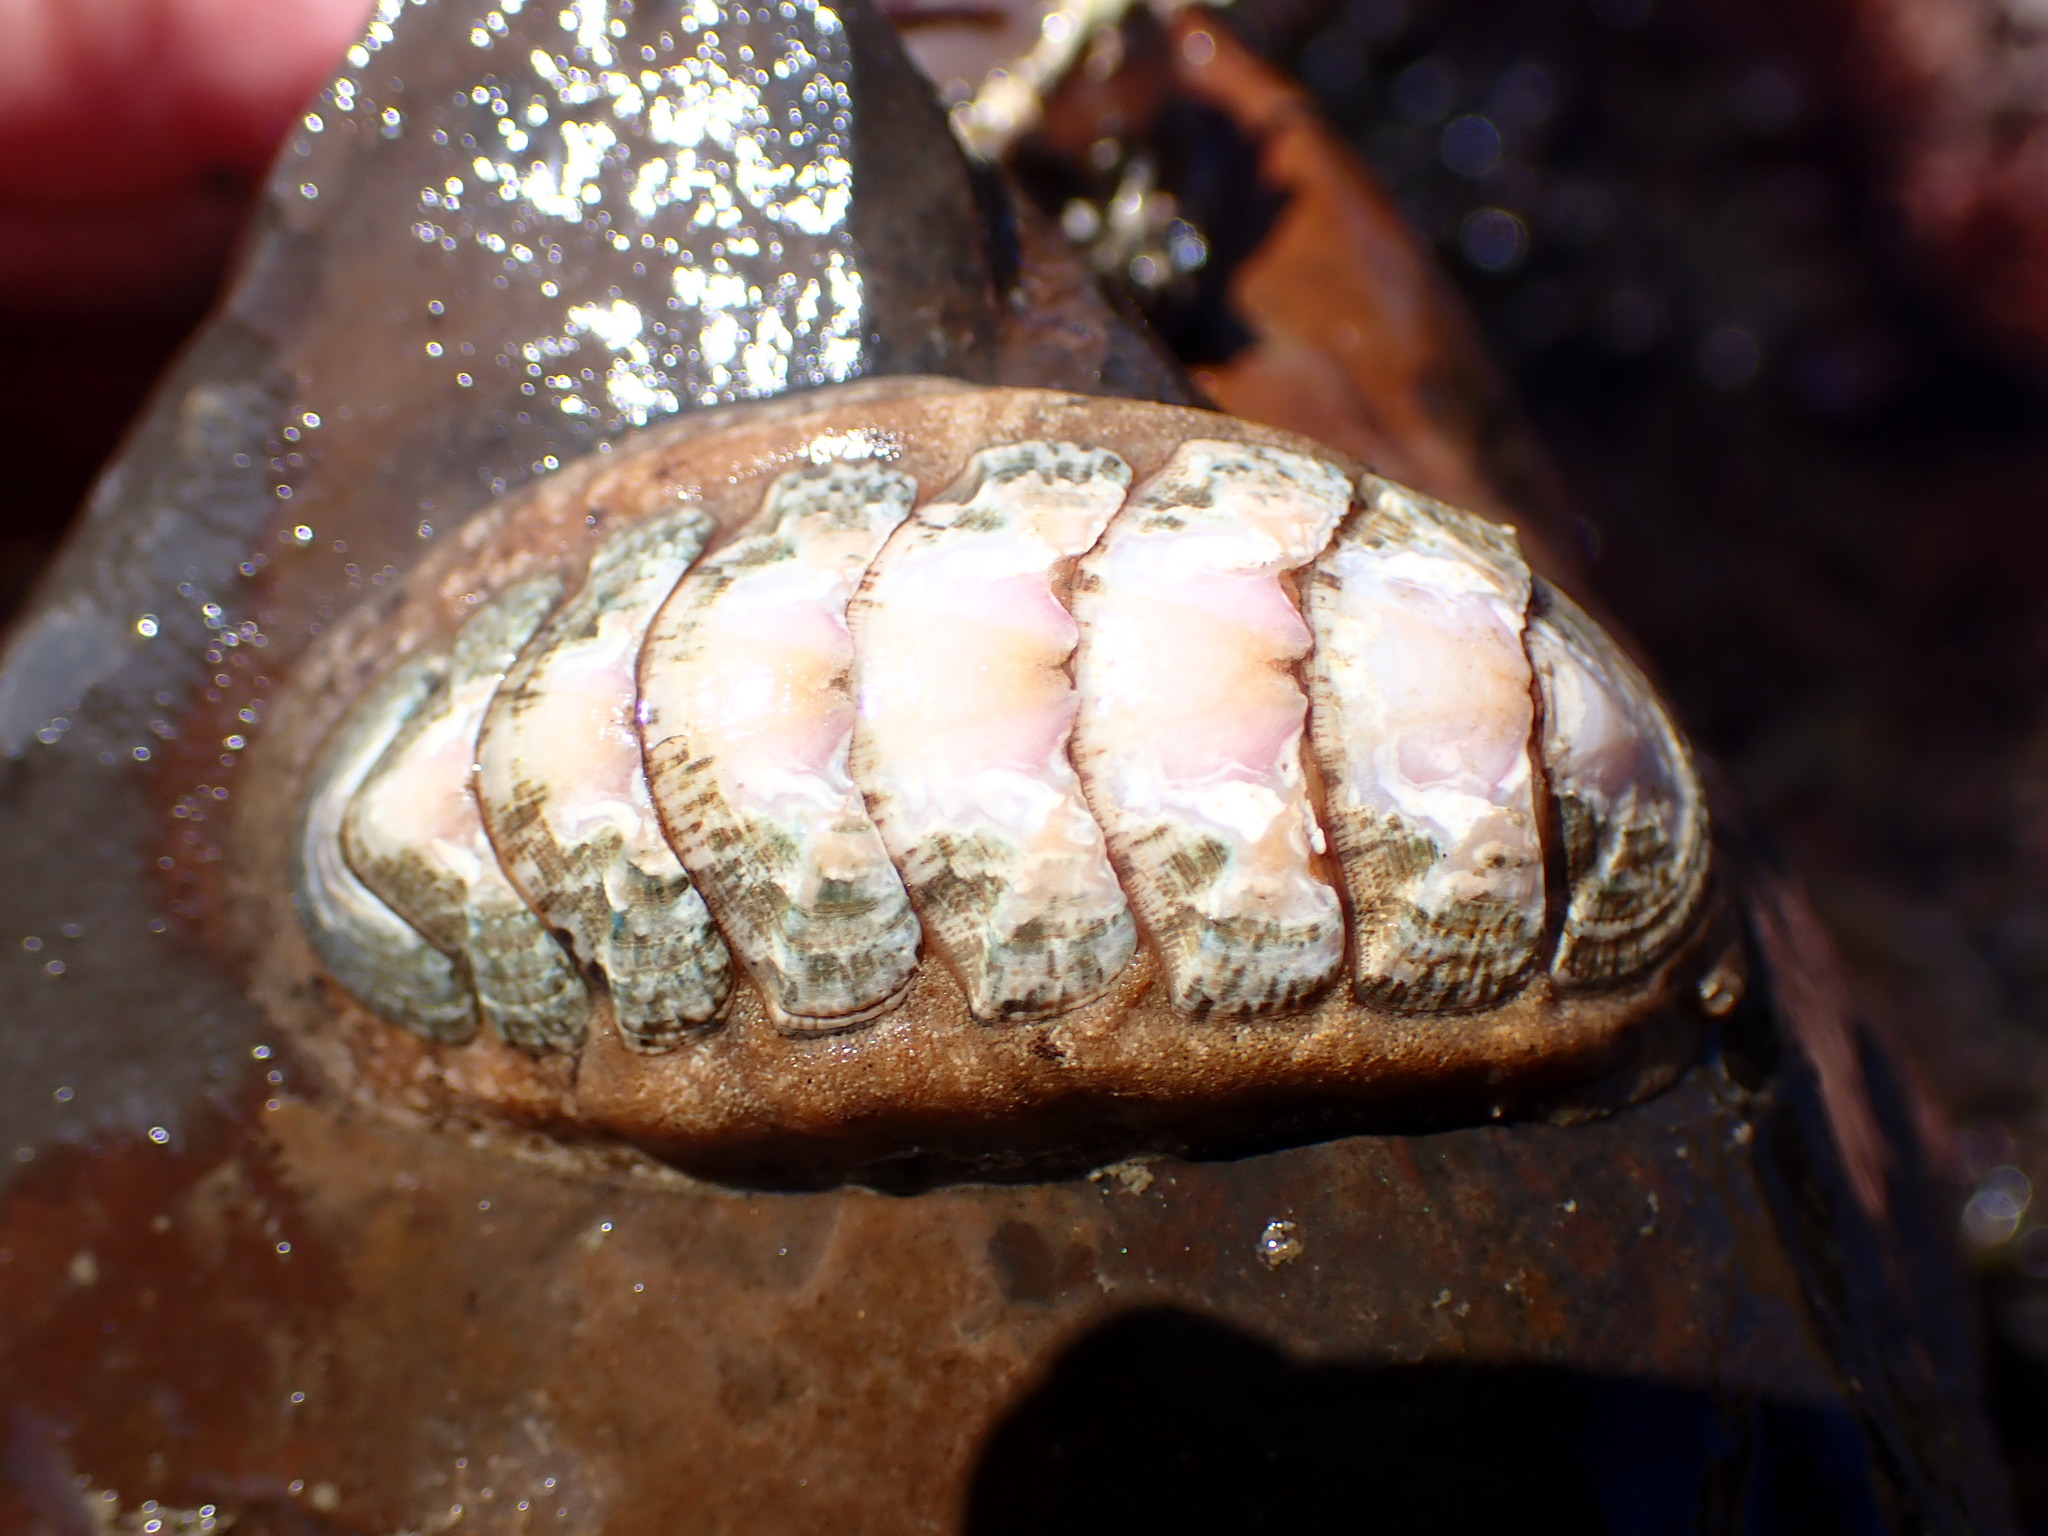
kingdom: Animalia
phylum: Mollusca
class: Polyplacophora
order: Chitonida
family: Ischnochitonidae
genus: Stenoplax
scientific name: Stenoplax heathiana
